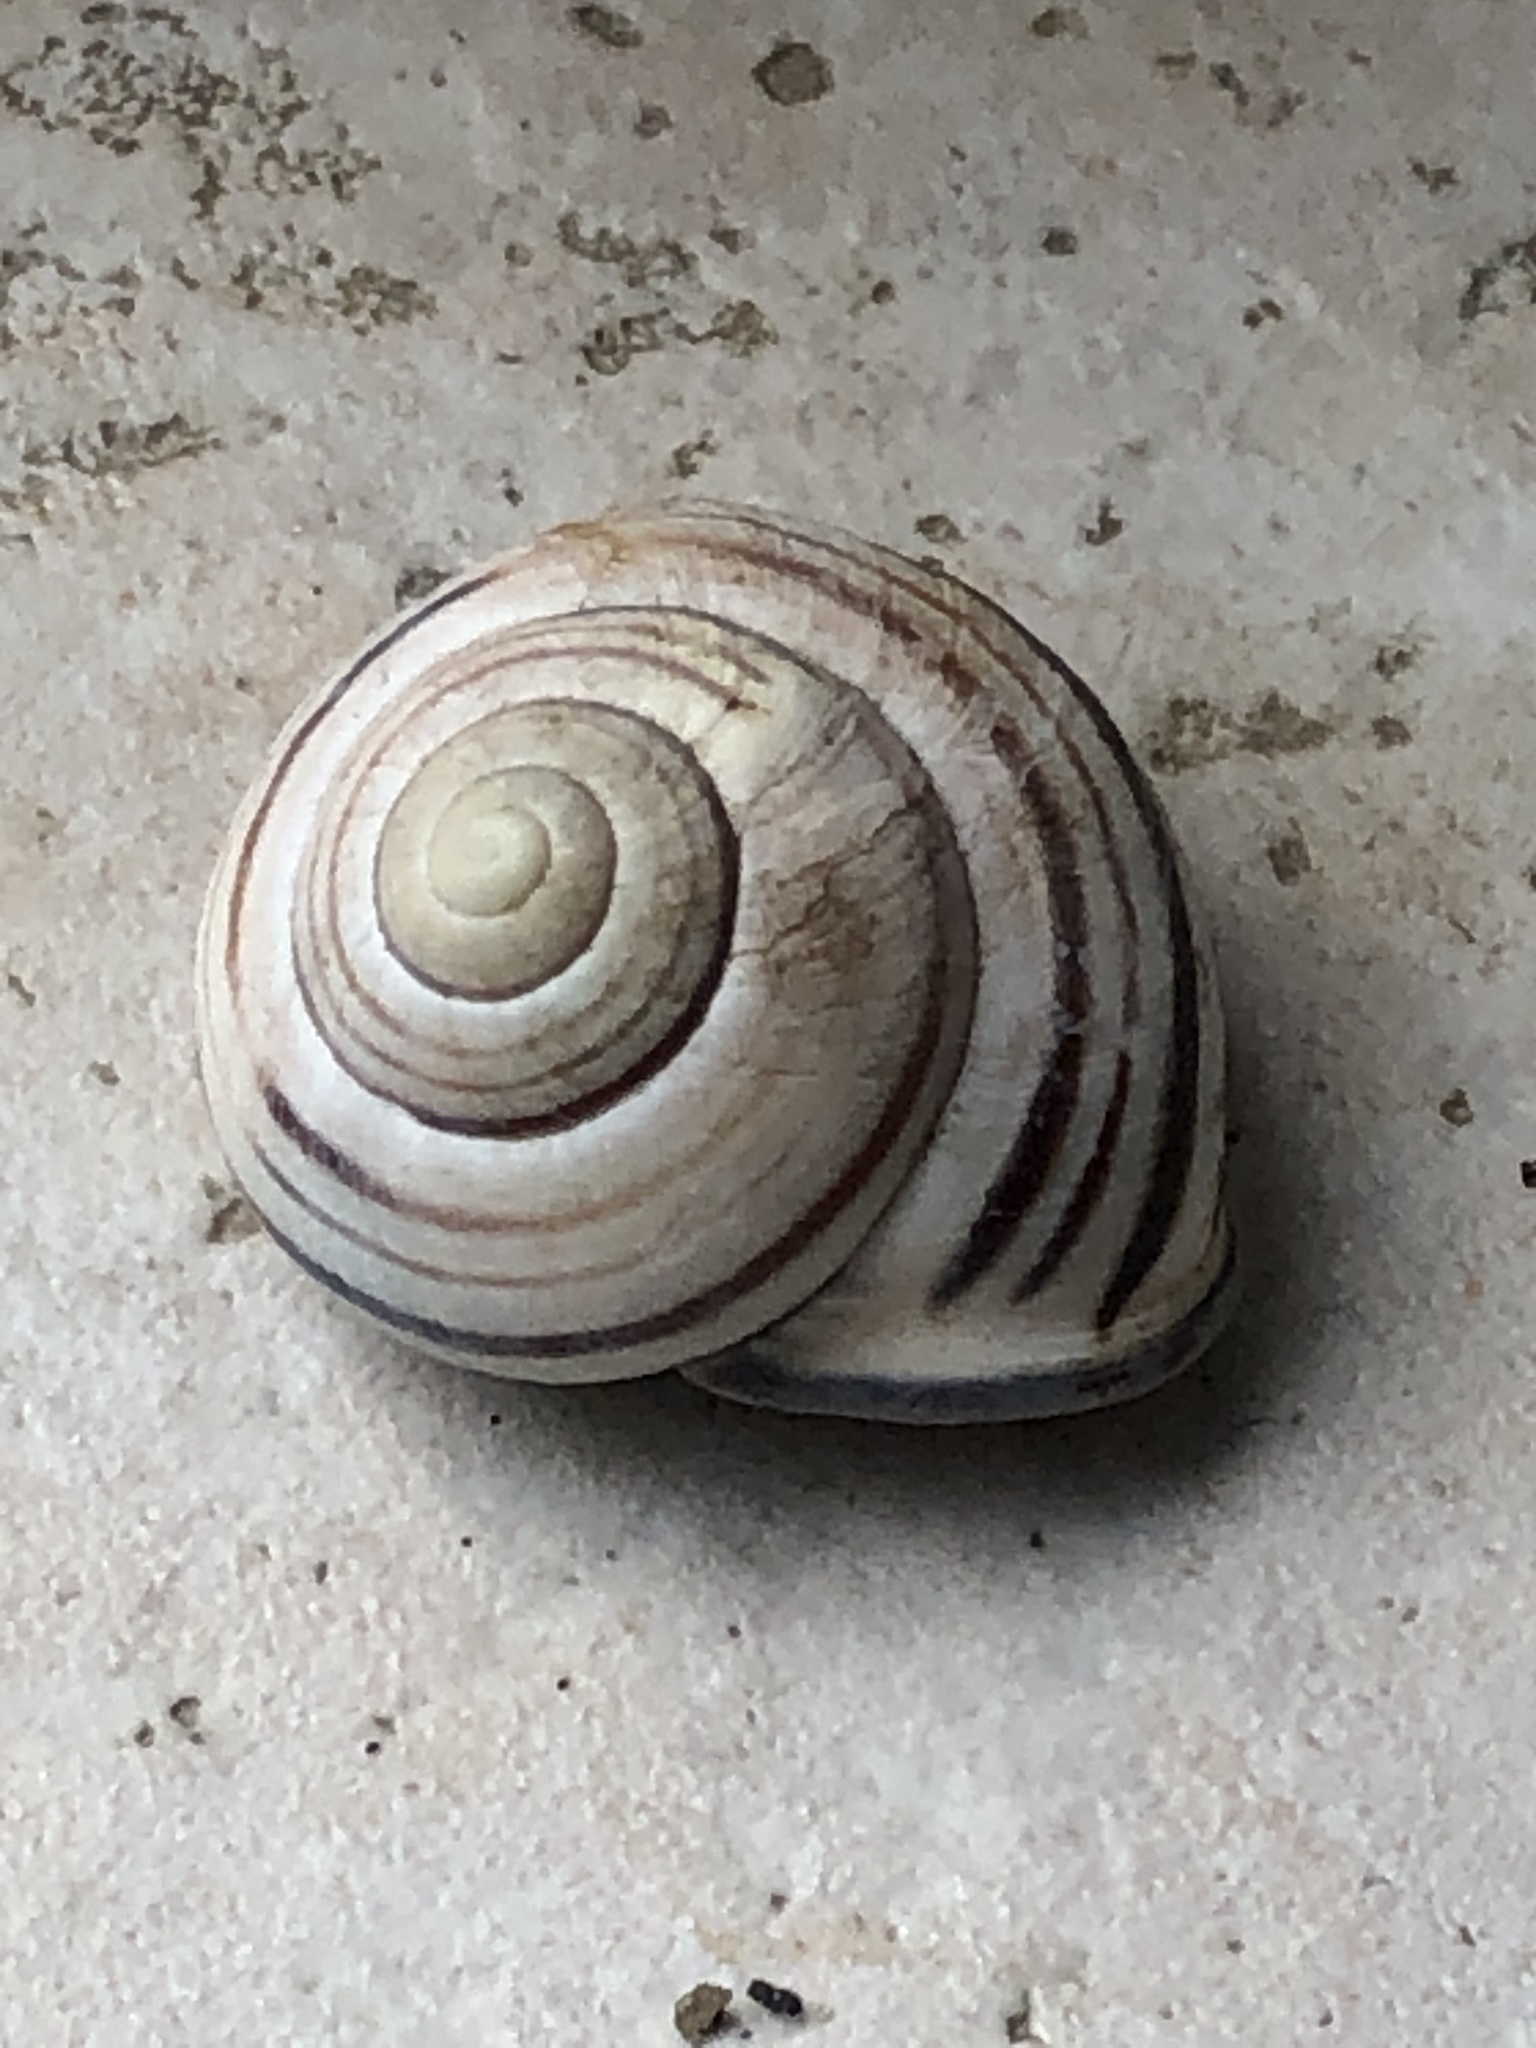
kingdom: Animalia
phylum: Mollusca
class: Gastropoda
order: Stylommatophora
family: Helicidae
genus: Cepaea
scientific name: Cepaea nemoralis
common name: Grovesnail
